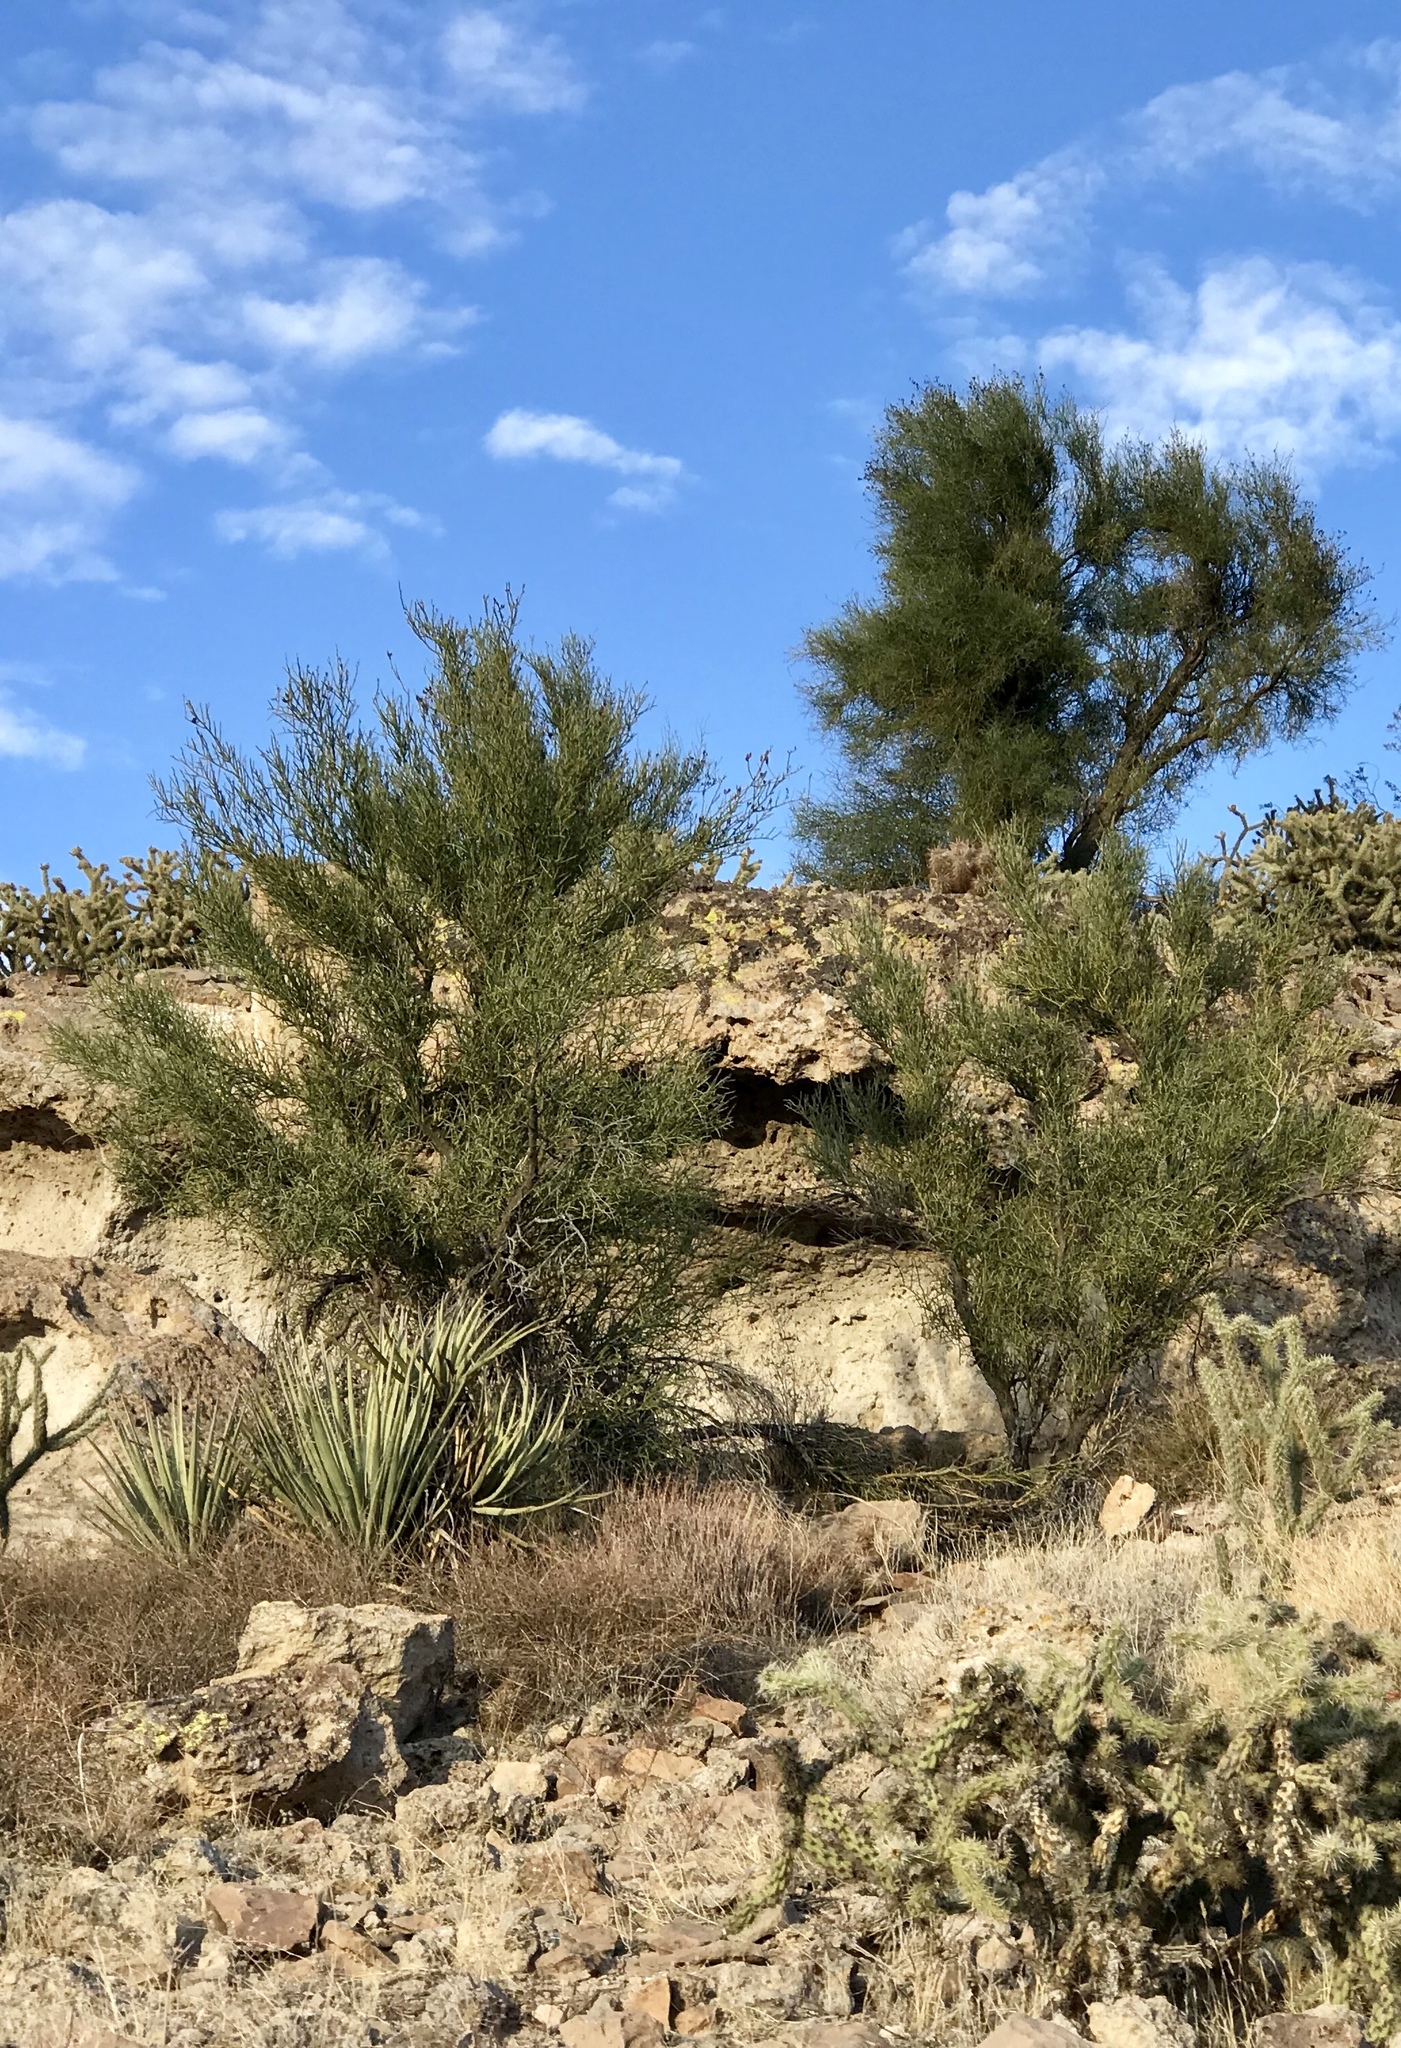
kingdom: Plantae
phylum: Tracheophyta
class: Magnoliopsida
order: Celastrales
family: Celastraceae
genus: Canotia
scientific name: Canotia holacantha
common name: Crucifixion thorns
